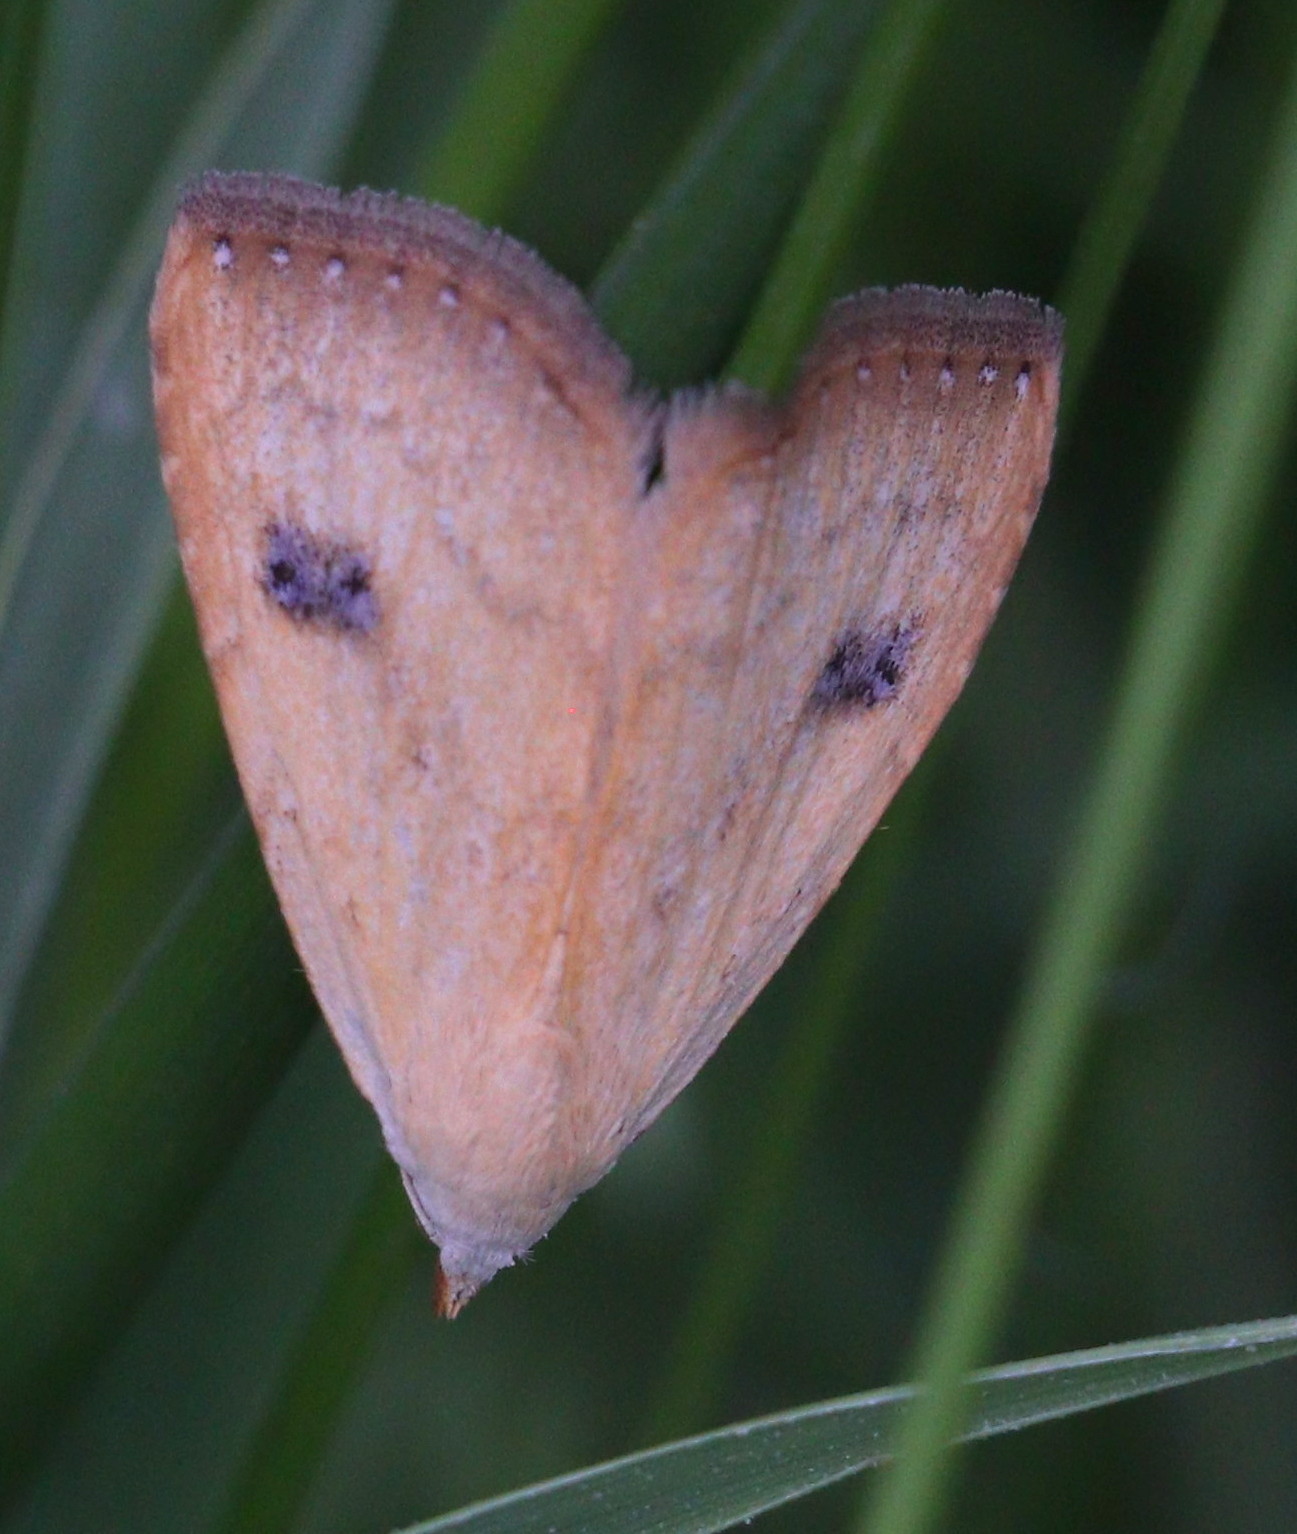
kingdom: Animalia
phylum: Arthropoda
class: Insecta
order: Lepidoptera
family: Erebidae
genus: Rivula
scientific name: Rivula sericealis
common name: Straw dot
